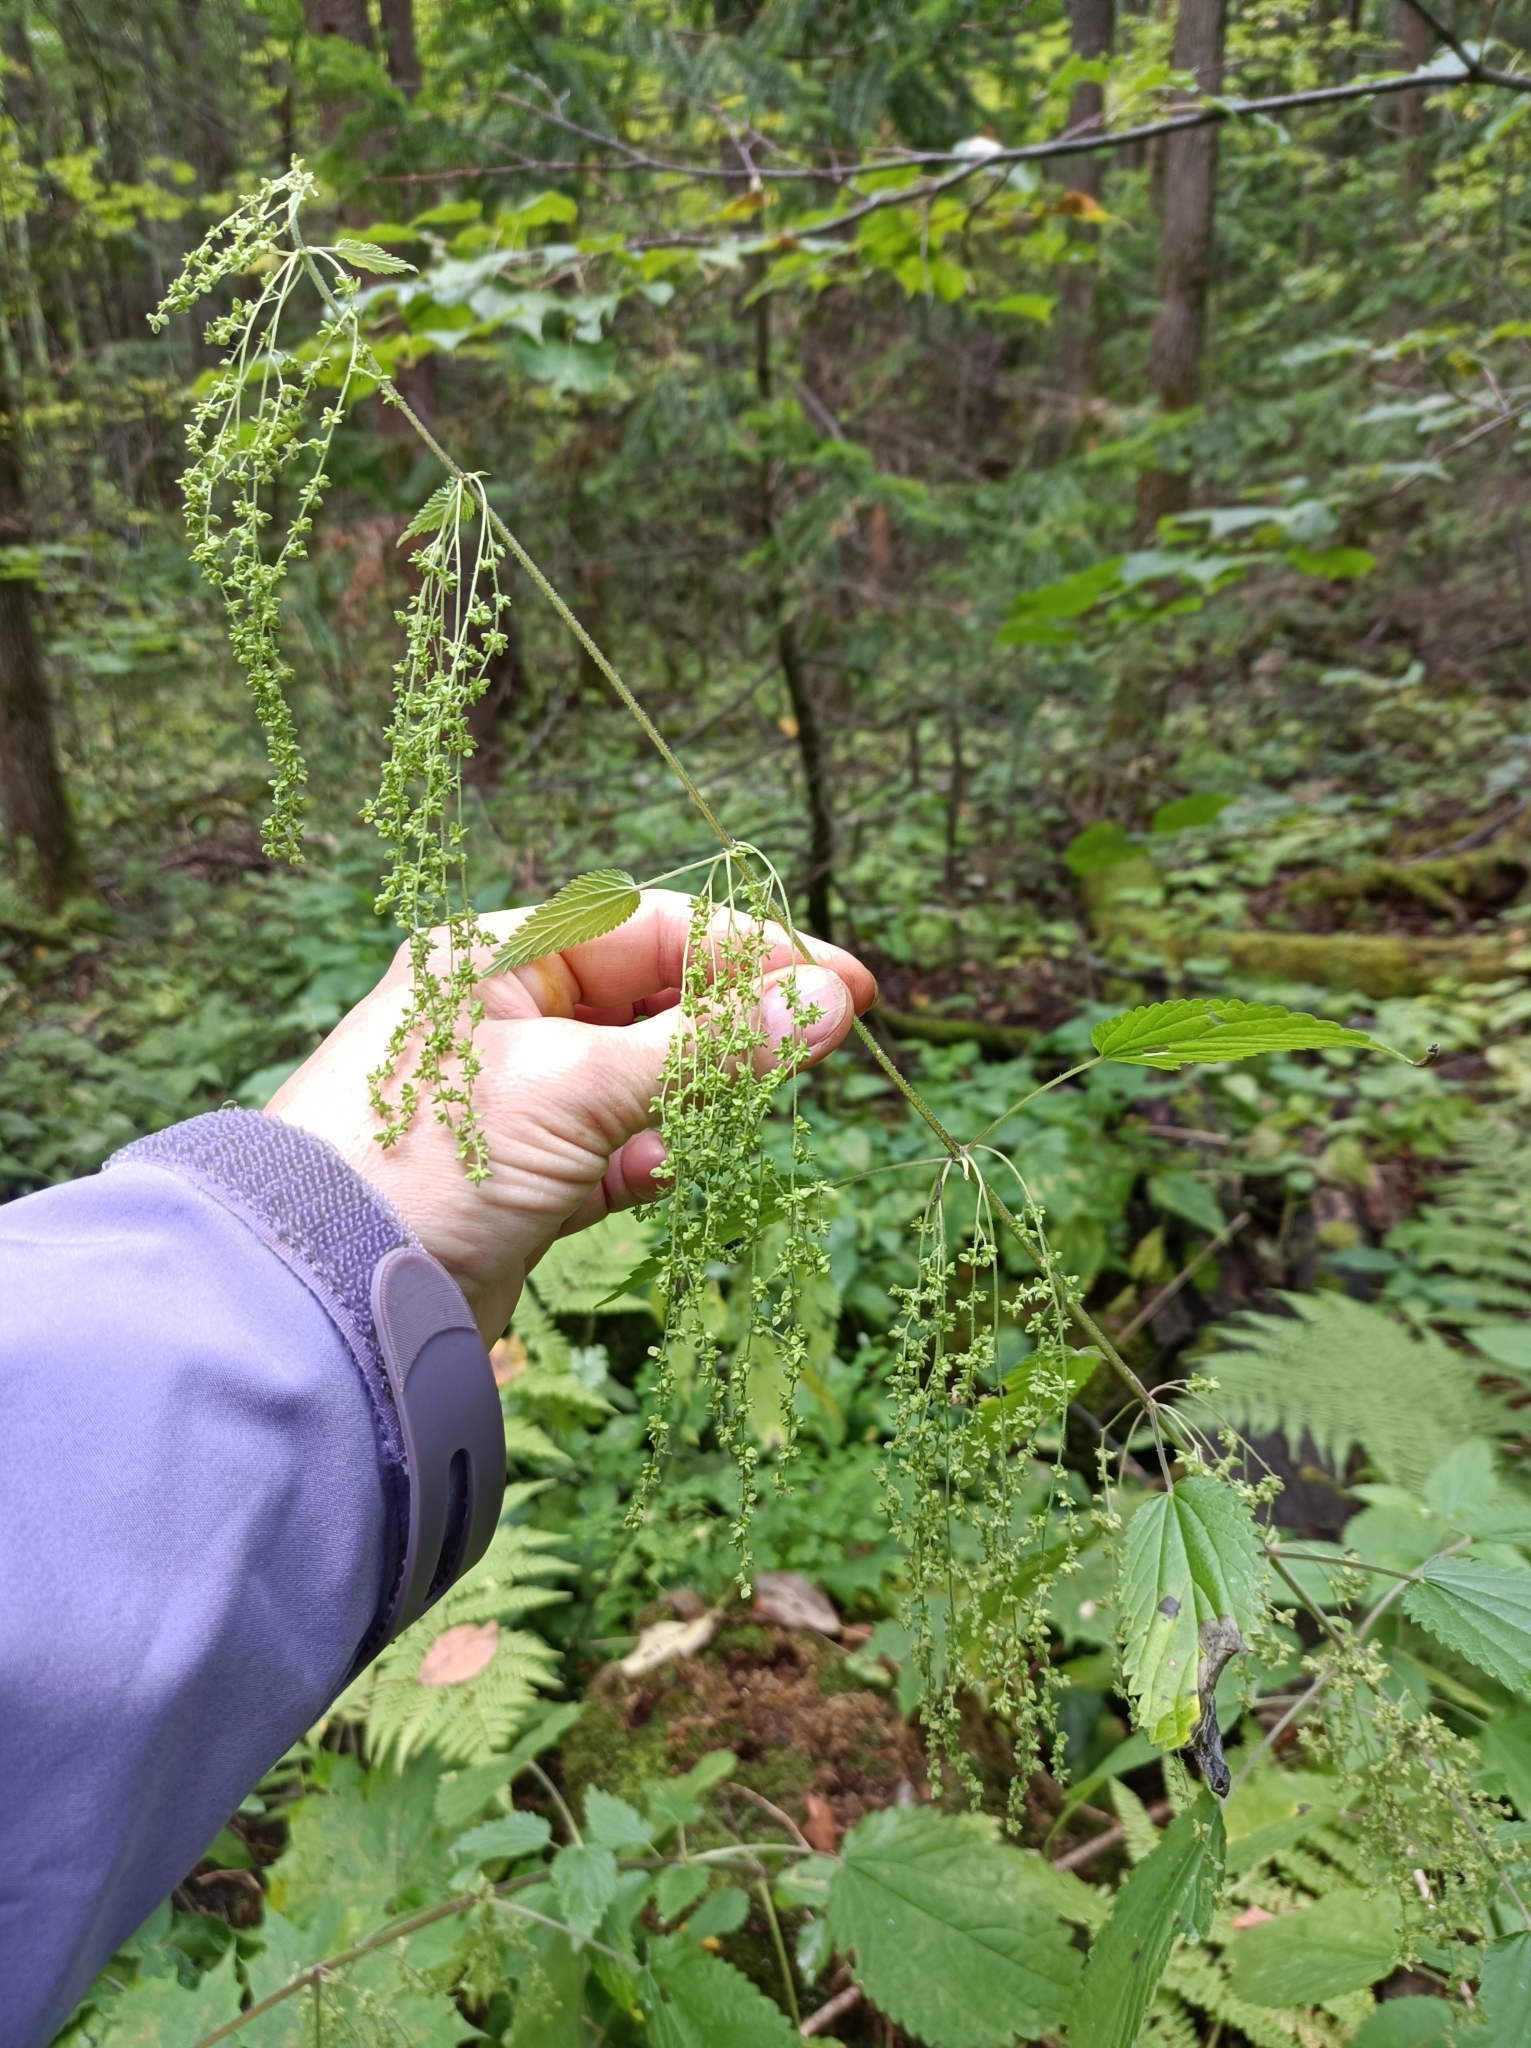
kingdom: Plantae
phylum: Tracheophyta
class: Magnoliopsida
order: Rosales
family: Urticaceae
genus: Urtica
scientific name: Urtica dioica
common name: Common nettle
